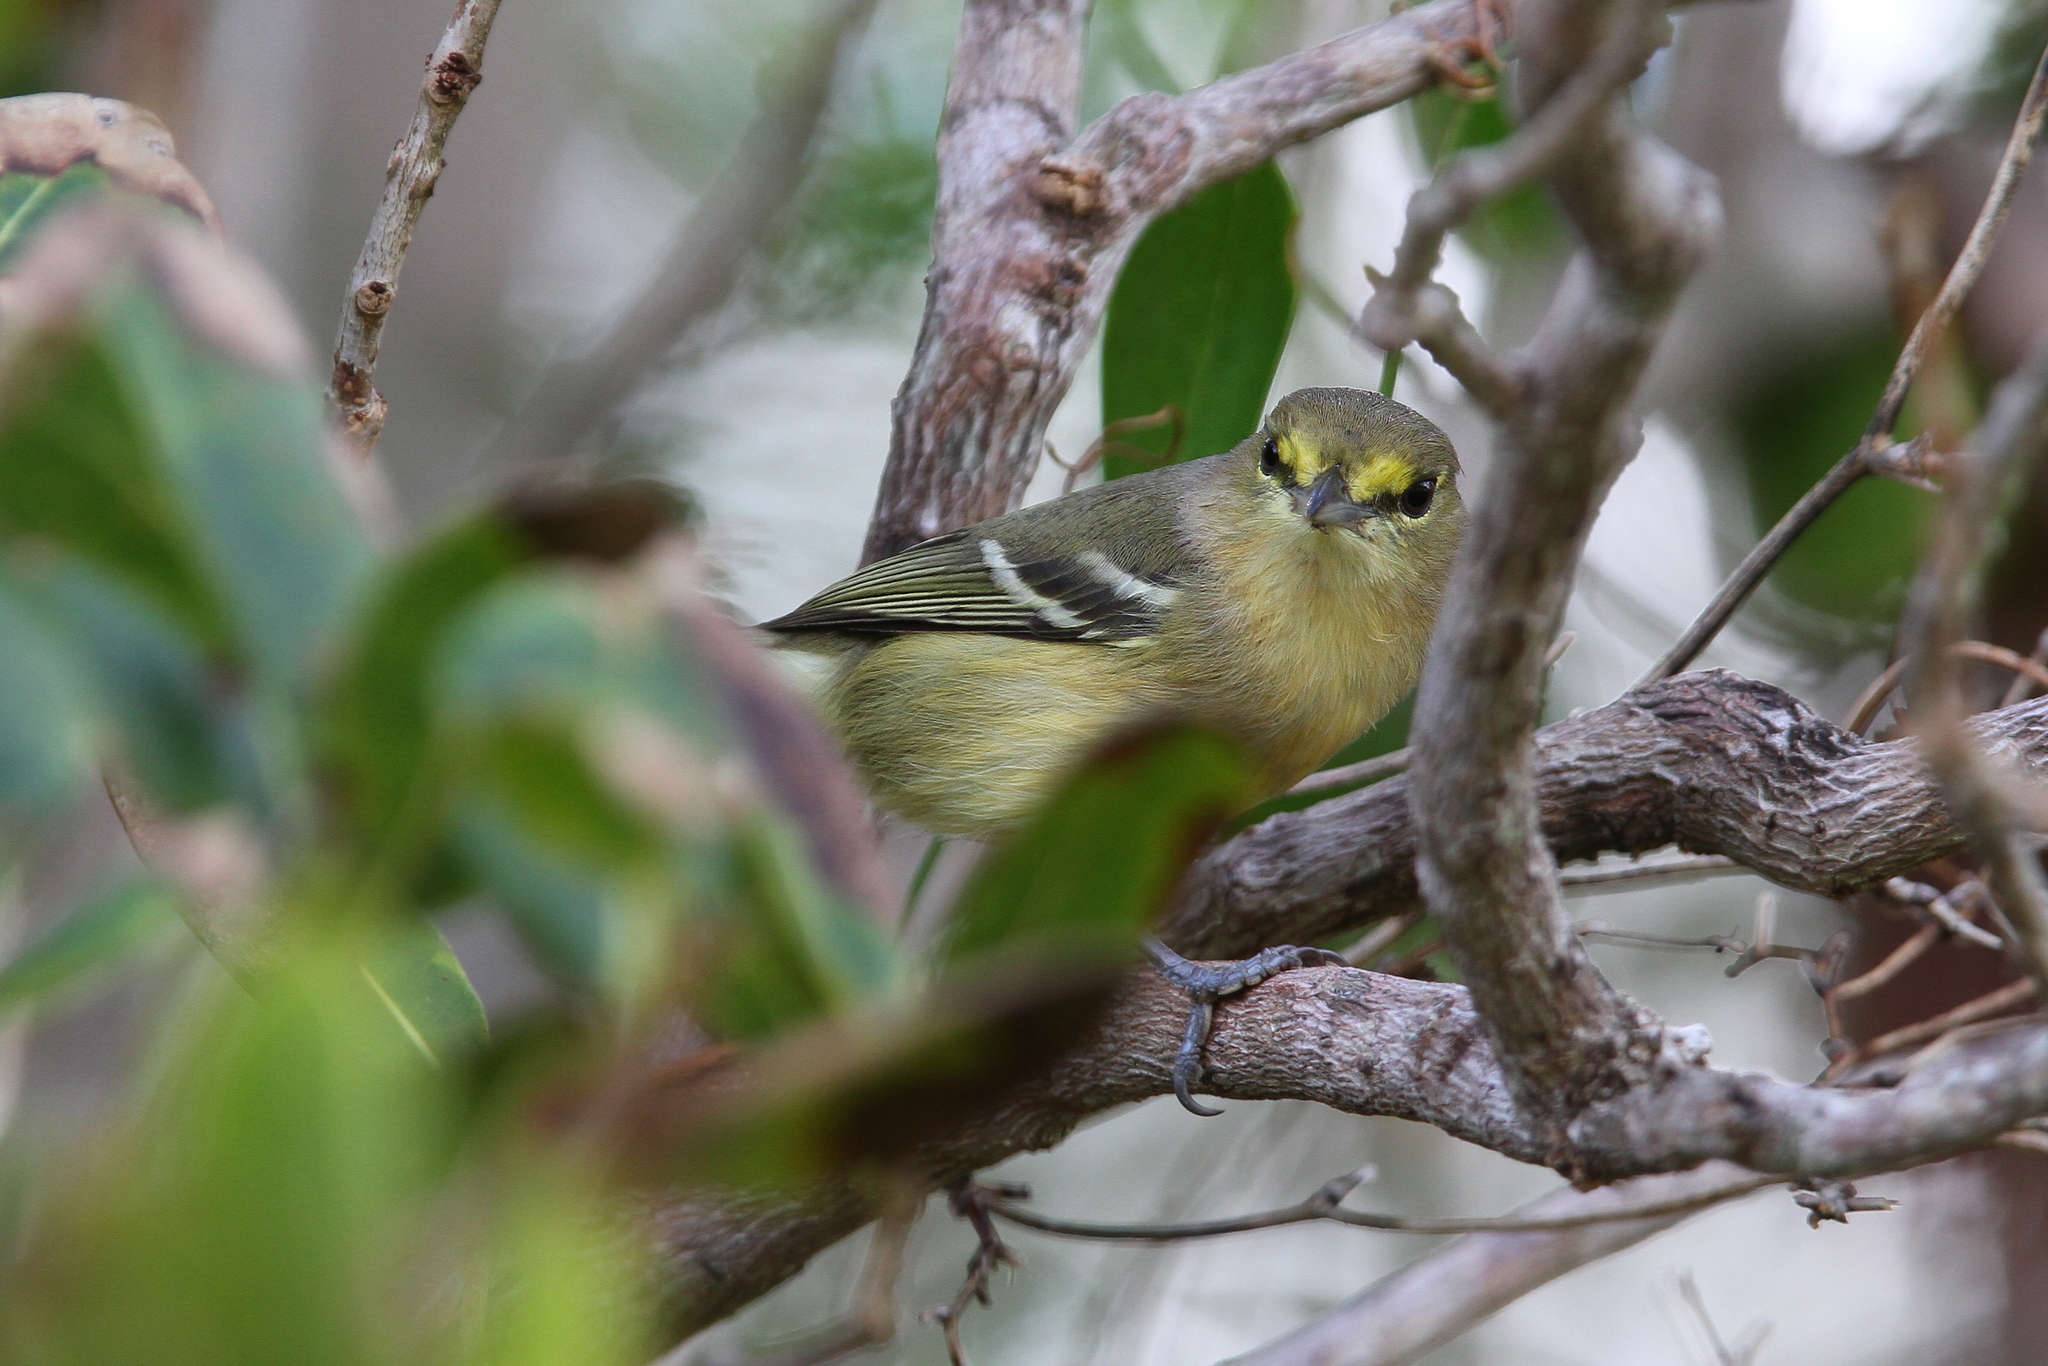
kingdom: Animalia
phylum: Chordata
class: Aves
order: Passeriformes
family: Vireonidae
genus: Vireo
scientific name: Vireo crassirostris
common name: Thick-billed vireo
